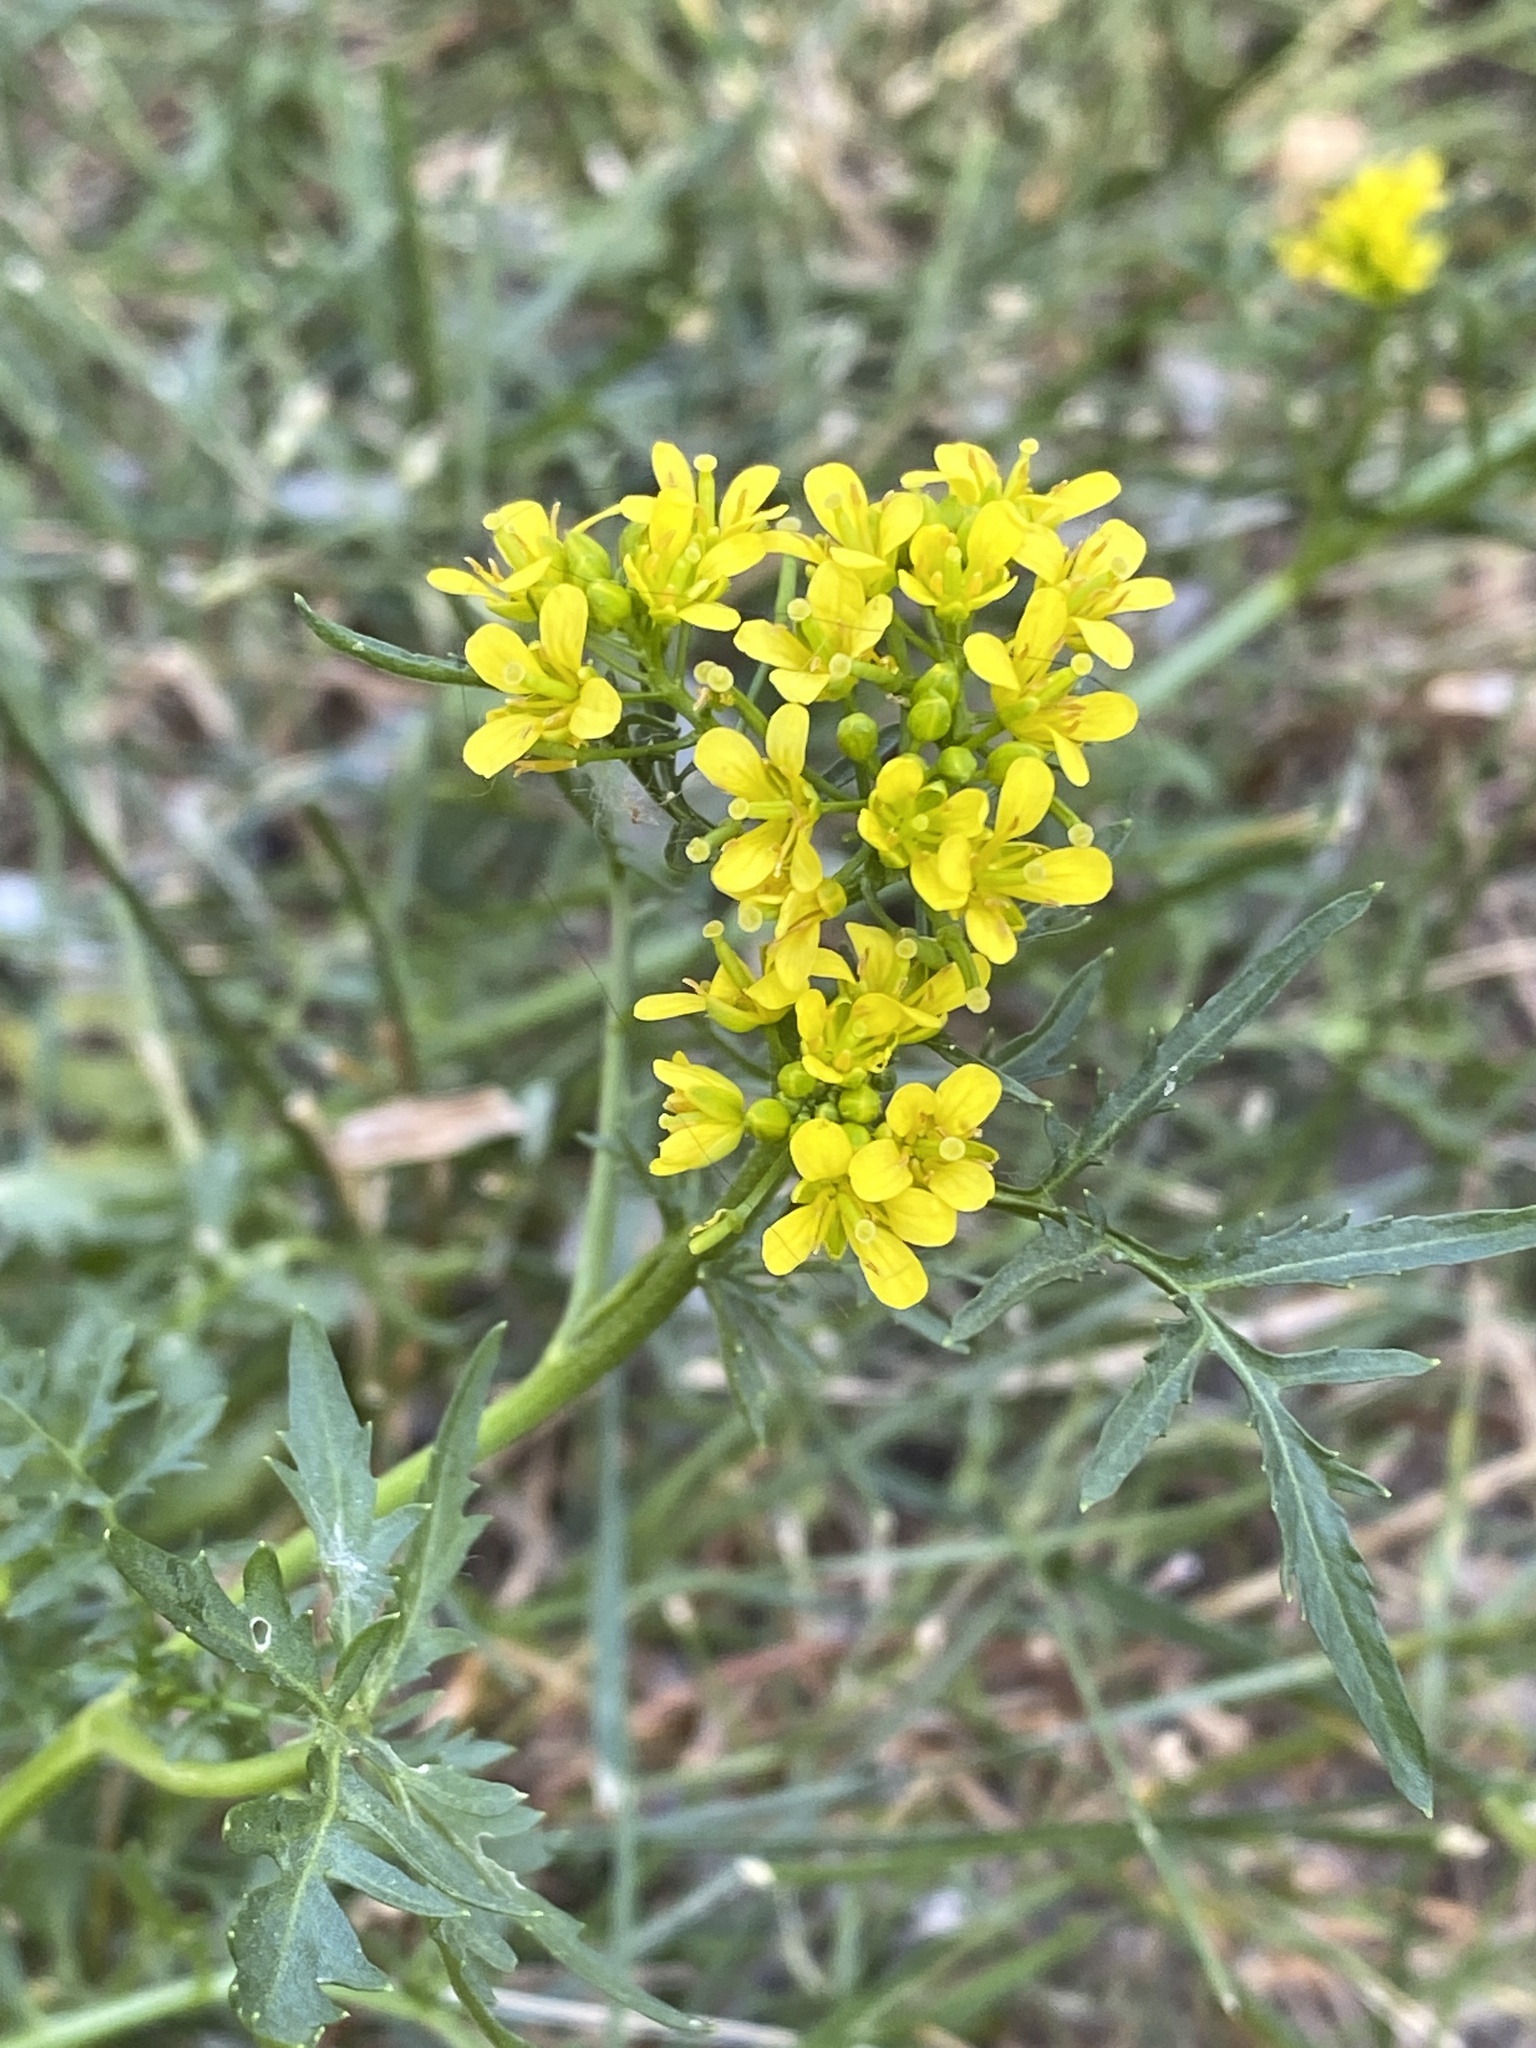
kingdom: Plantae
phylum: Tracheophyta
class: Magnoliopsida
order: Brassicales
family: Brassicaceae
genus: Rorippa
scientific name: Rorippa sylvestris
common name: Creeping yellowcress
